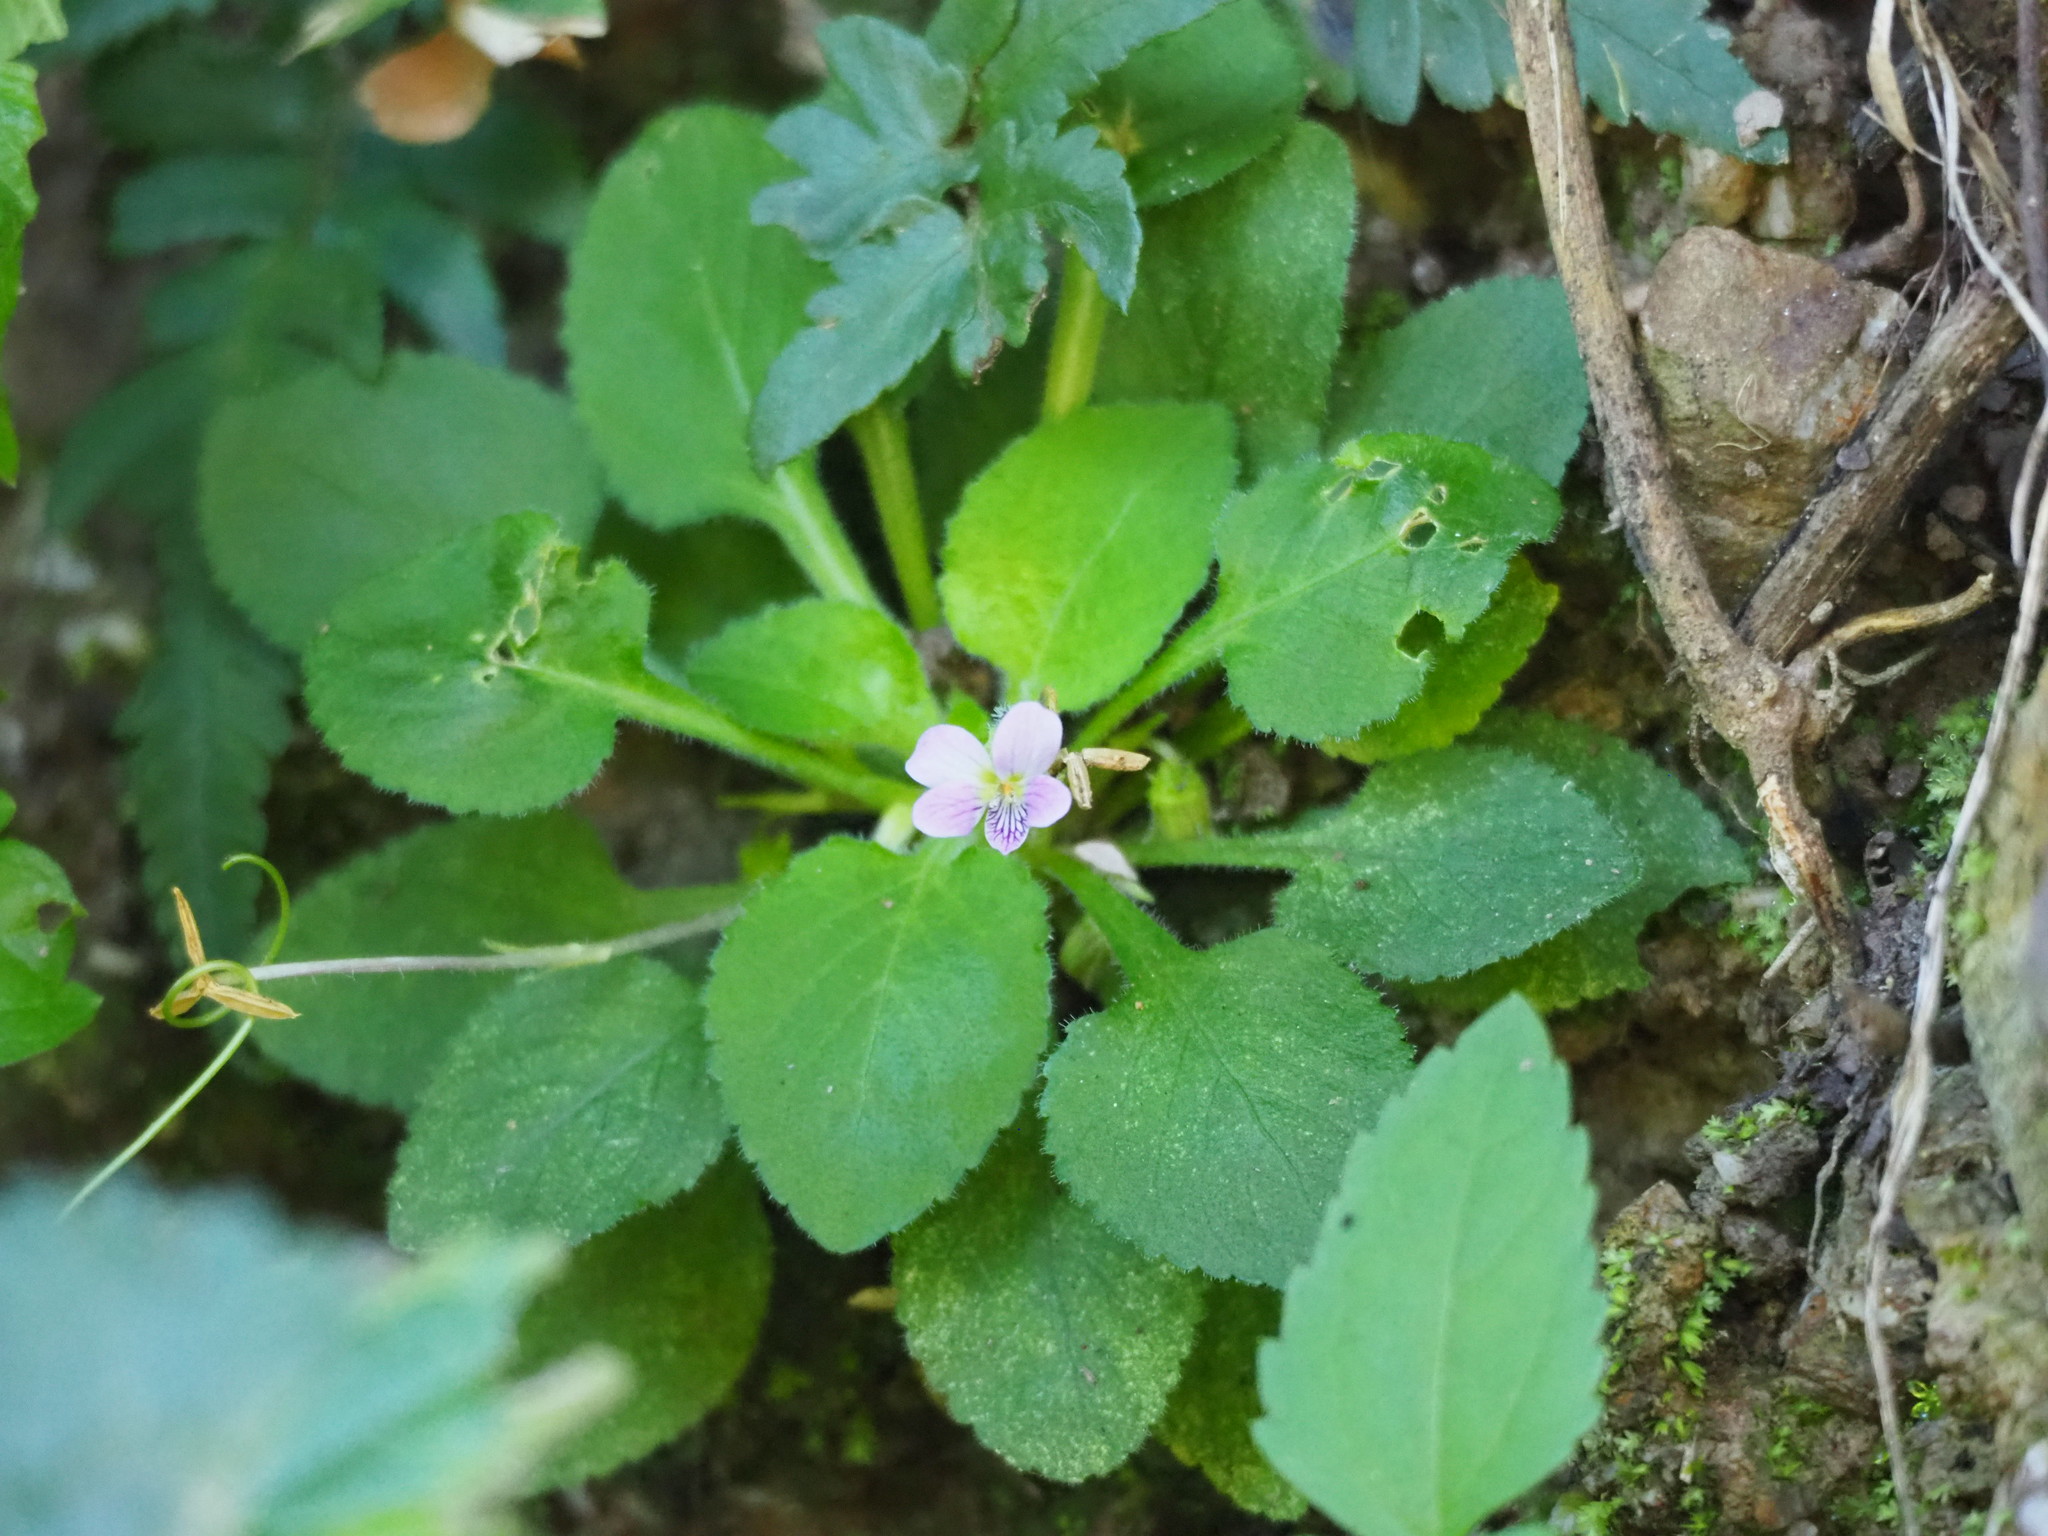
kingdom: Plantae
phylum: Tracheophyta
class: Magnoliopsida
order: Malpighiales
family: Violaceae
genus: Viola
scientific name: Viola diffusa
